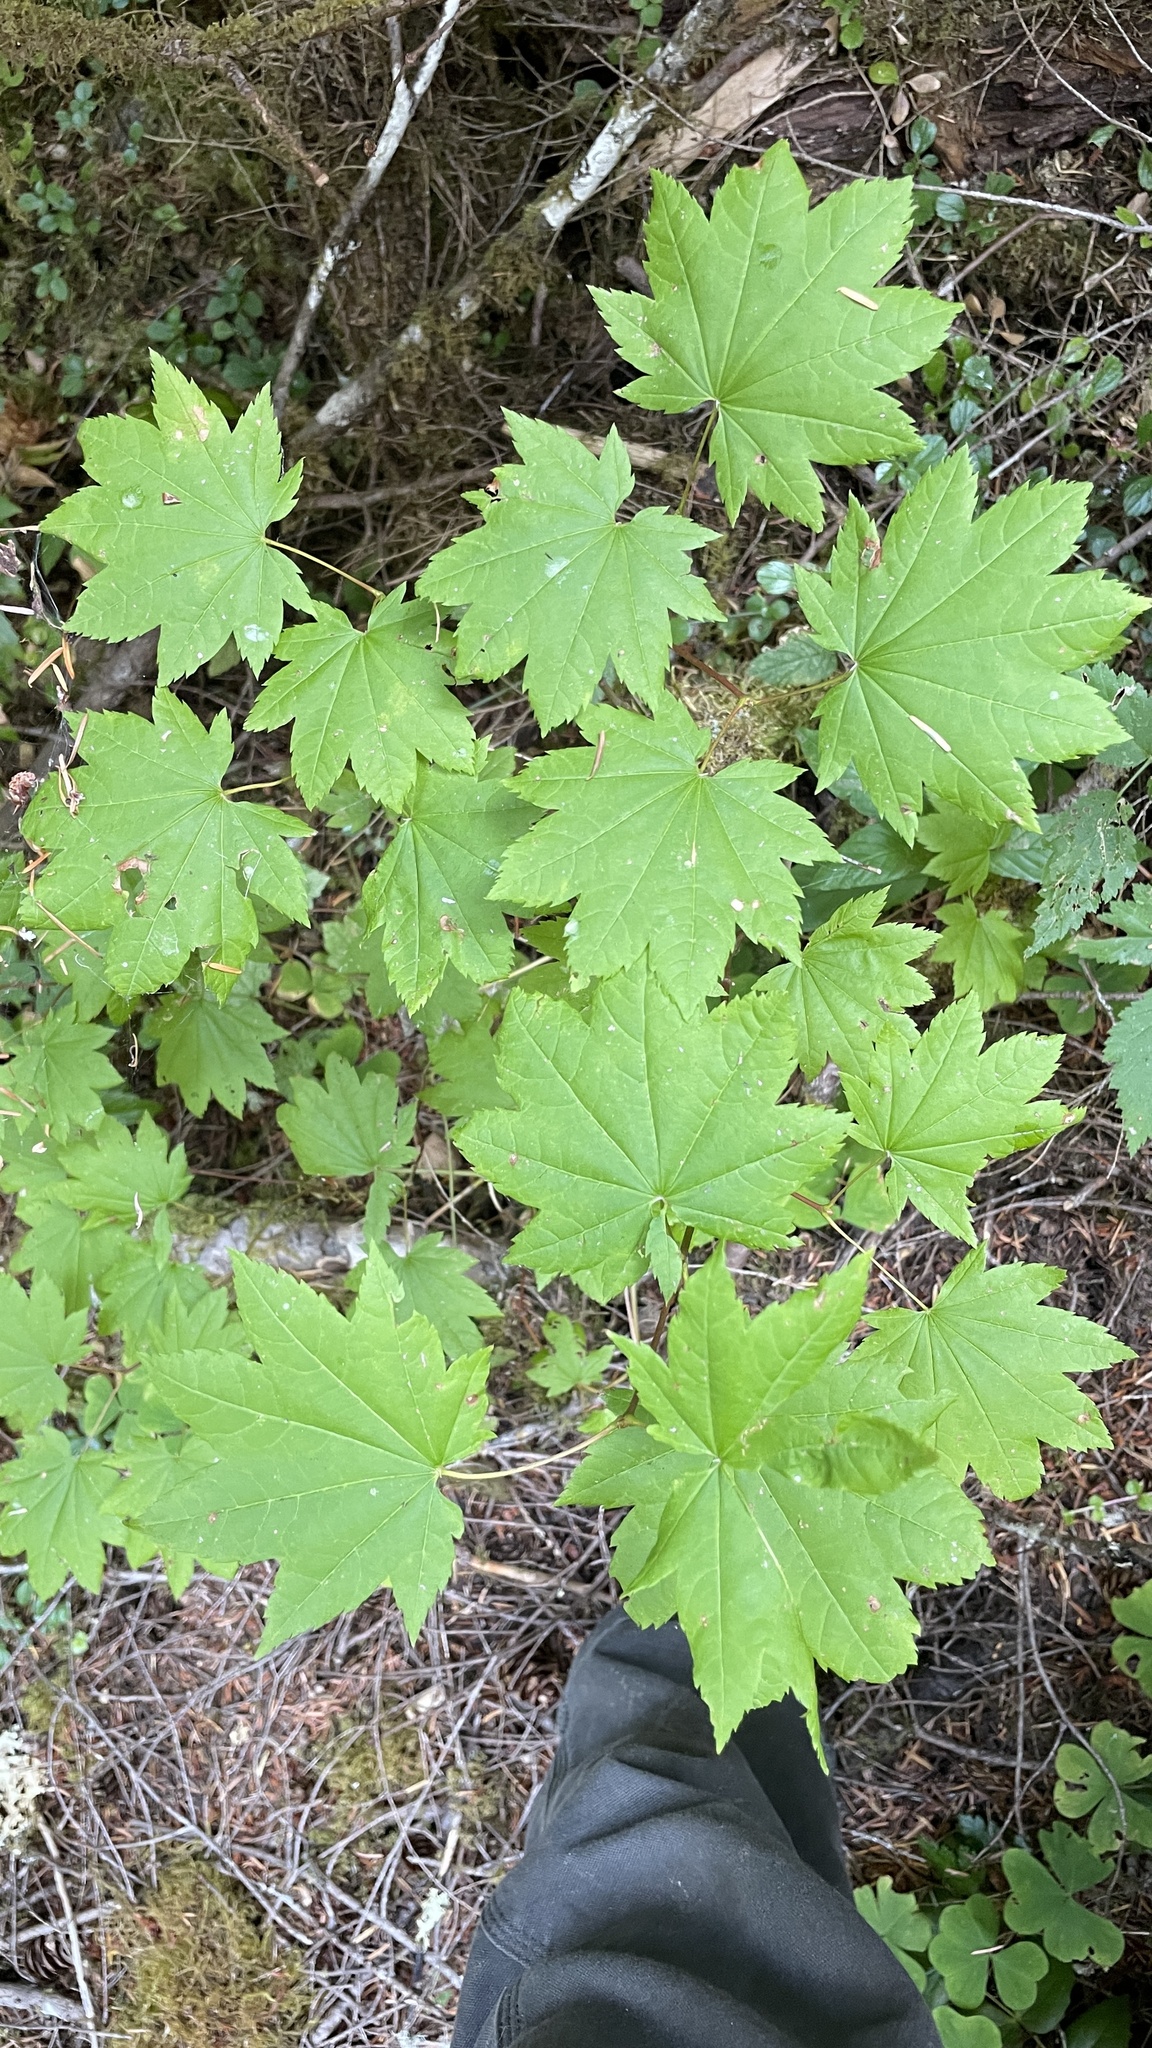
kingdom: Plantae
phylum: Tracheophyta
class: Magnoliopsida
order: Sapindales
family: Sapindaceae
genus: Acer
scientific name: Acer circinatum
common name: Vine maple
